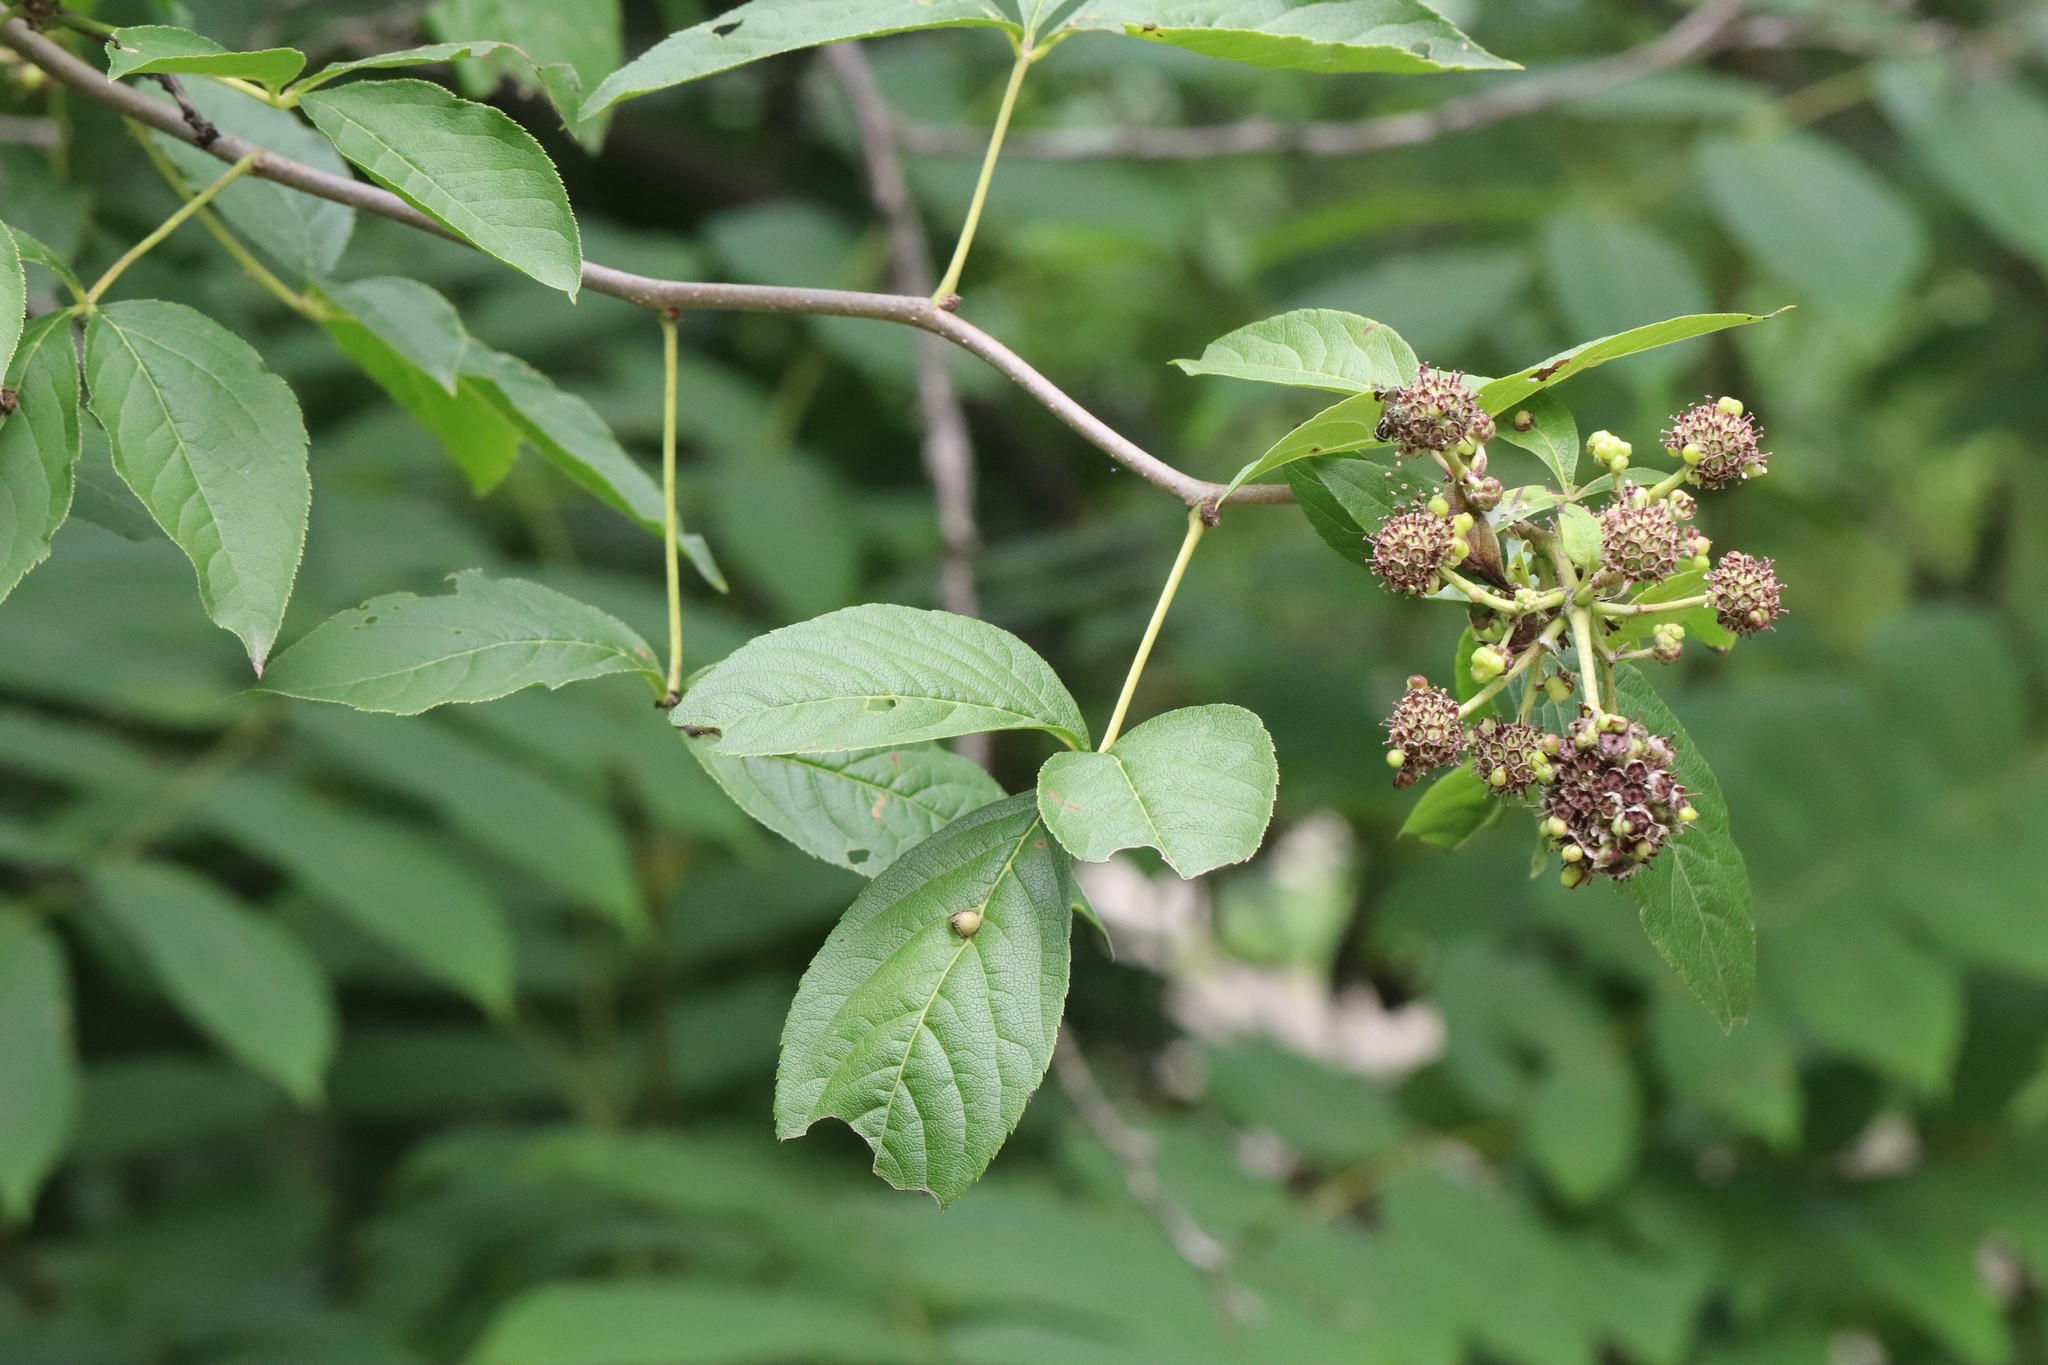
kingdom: Plantae
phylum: Tracheophyta
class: Magnoliopsida
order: Apiales
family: Araliaceae
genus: Eleutherococcus
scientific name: Eleutherococcus sessiliflorus
